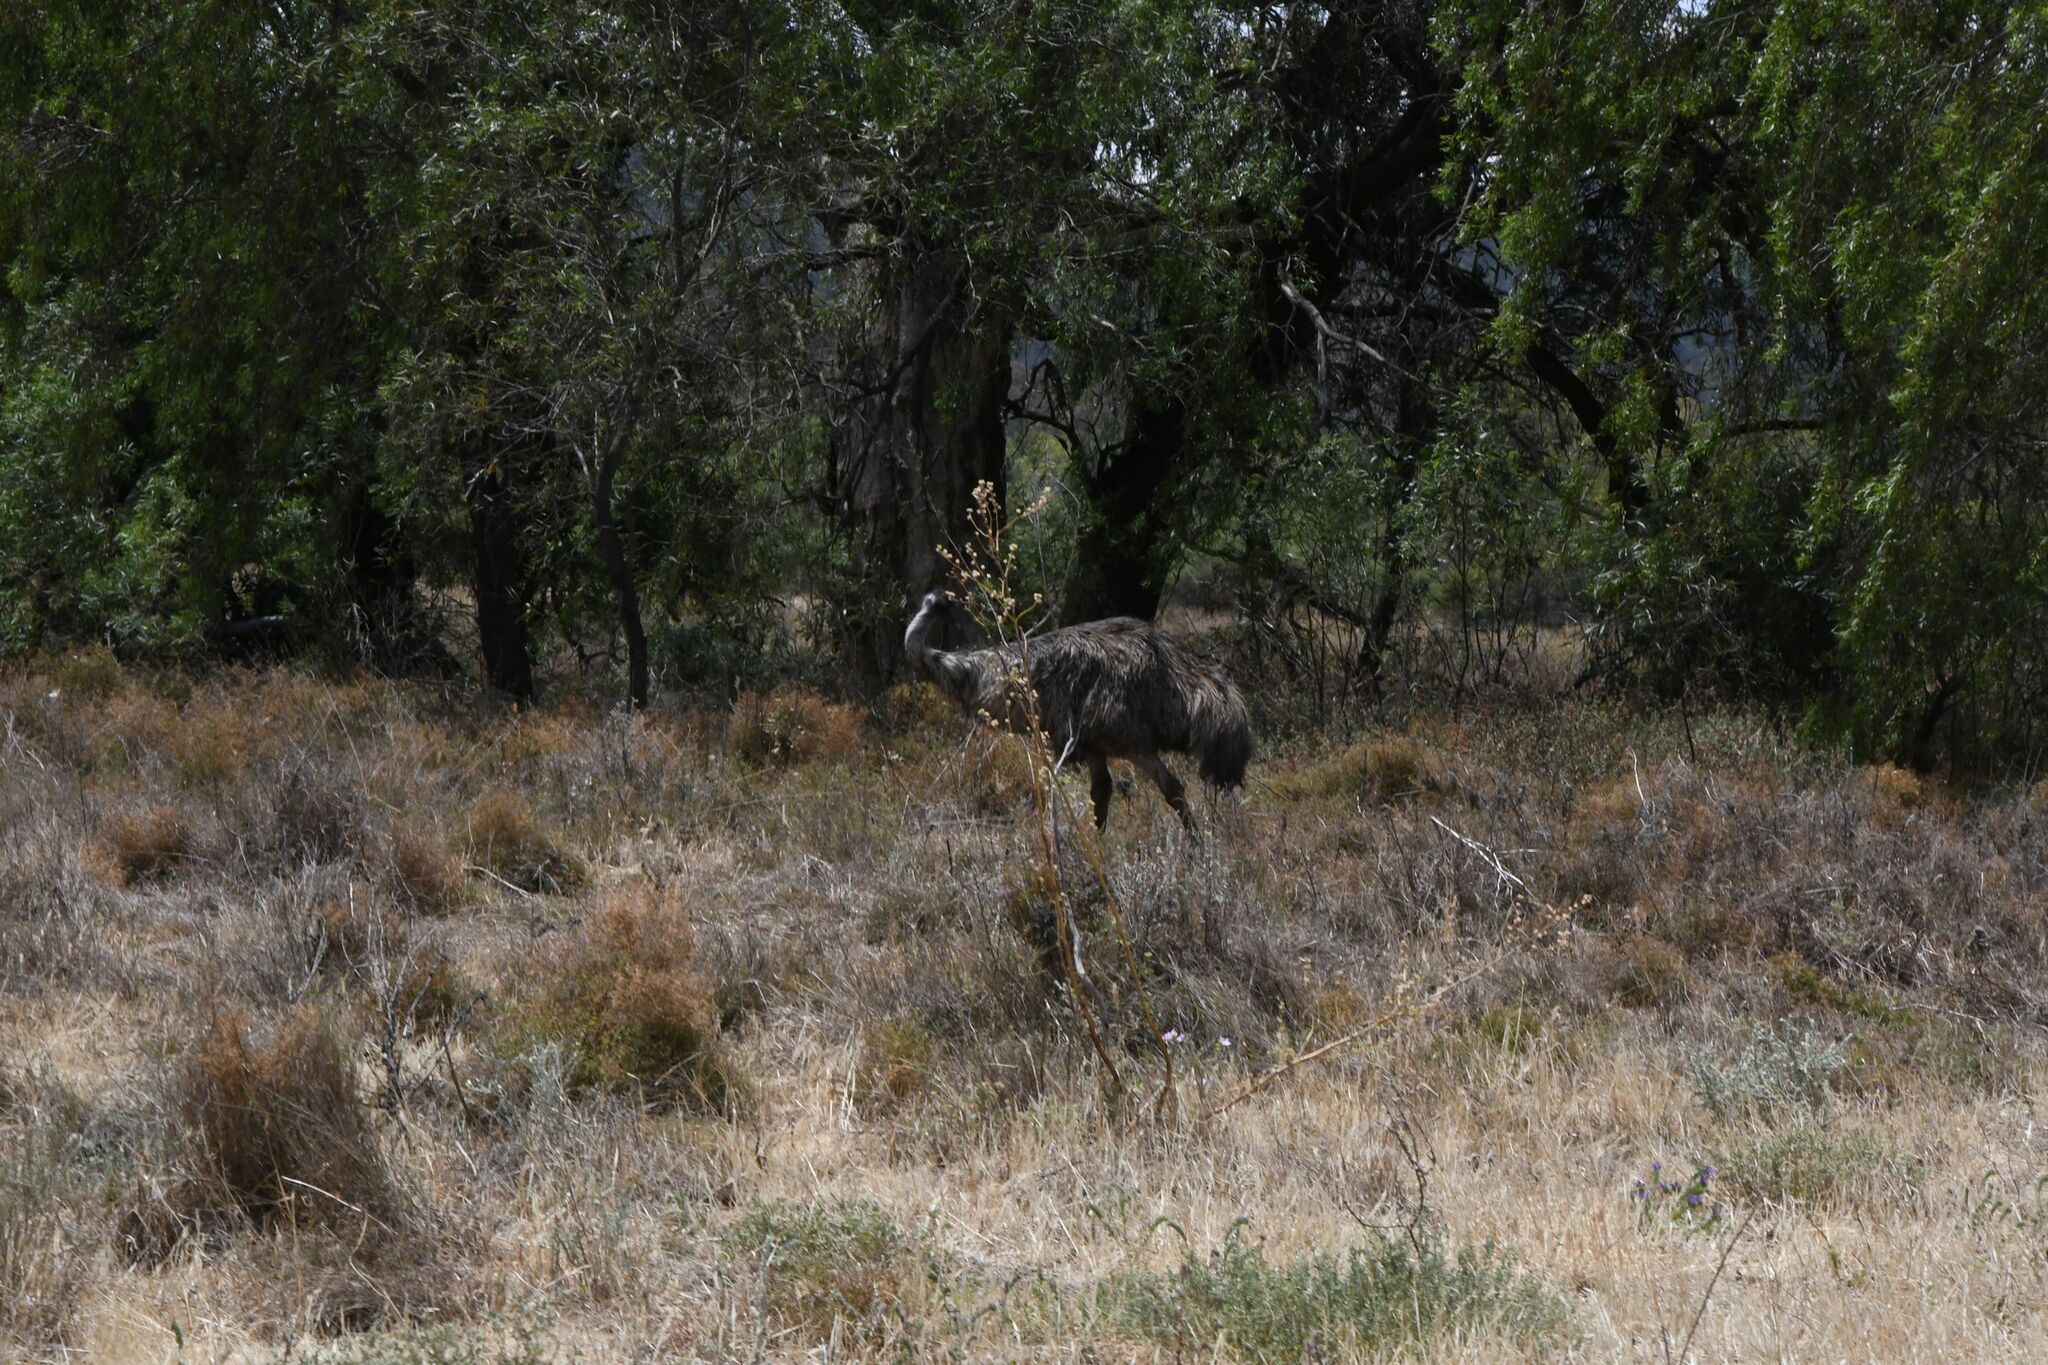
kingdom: Animalia
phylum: Chordata
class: Aves
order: Casuariiformes
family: Dromaiidae
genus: Dromaius
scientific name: Dromaius novaehollandiae
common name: Emu
